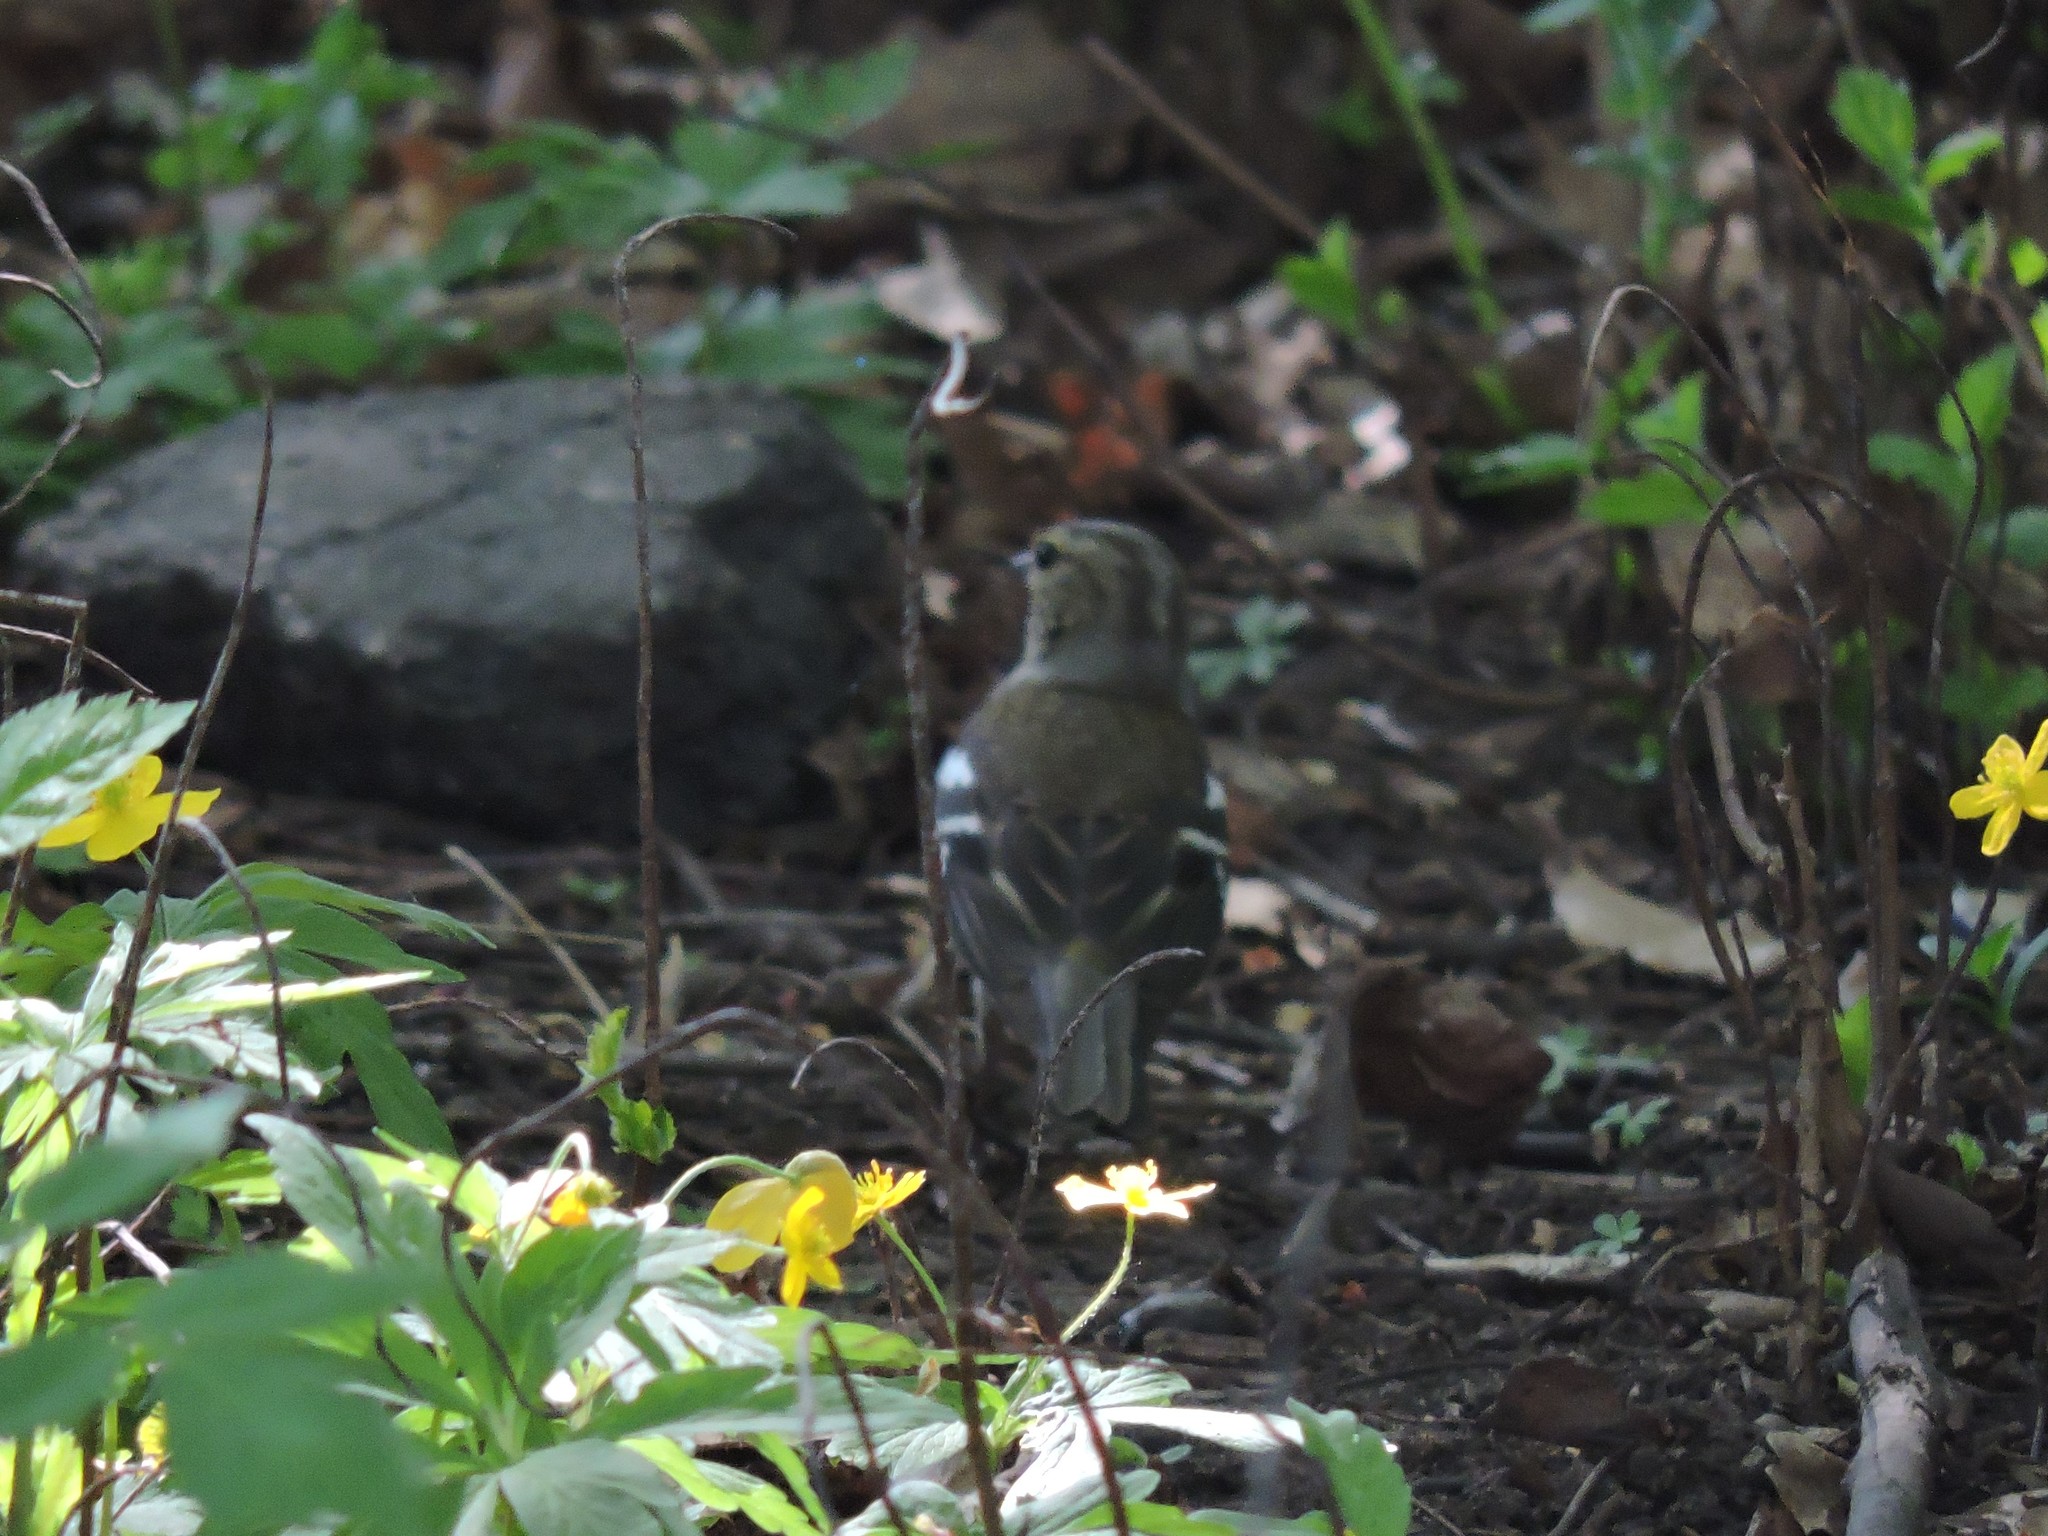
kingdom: Animalia
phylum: Chordata
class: Aves
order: Passeriformes
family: Fringillidae
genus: Fringilla
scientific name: Fringilla coelebs
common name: Common chaffinch
